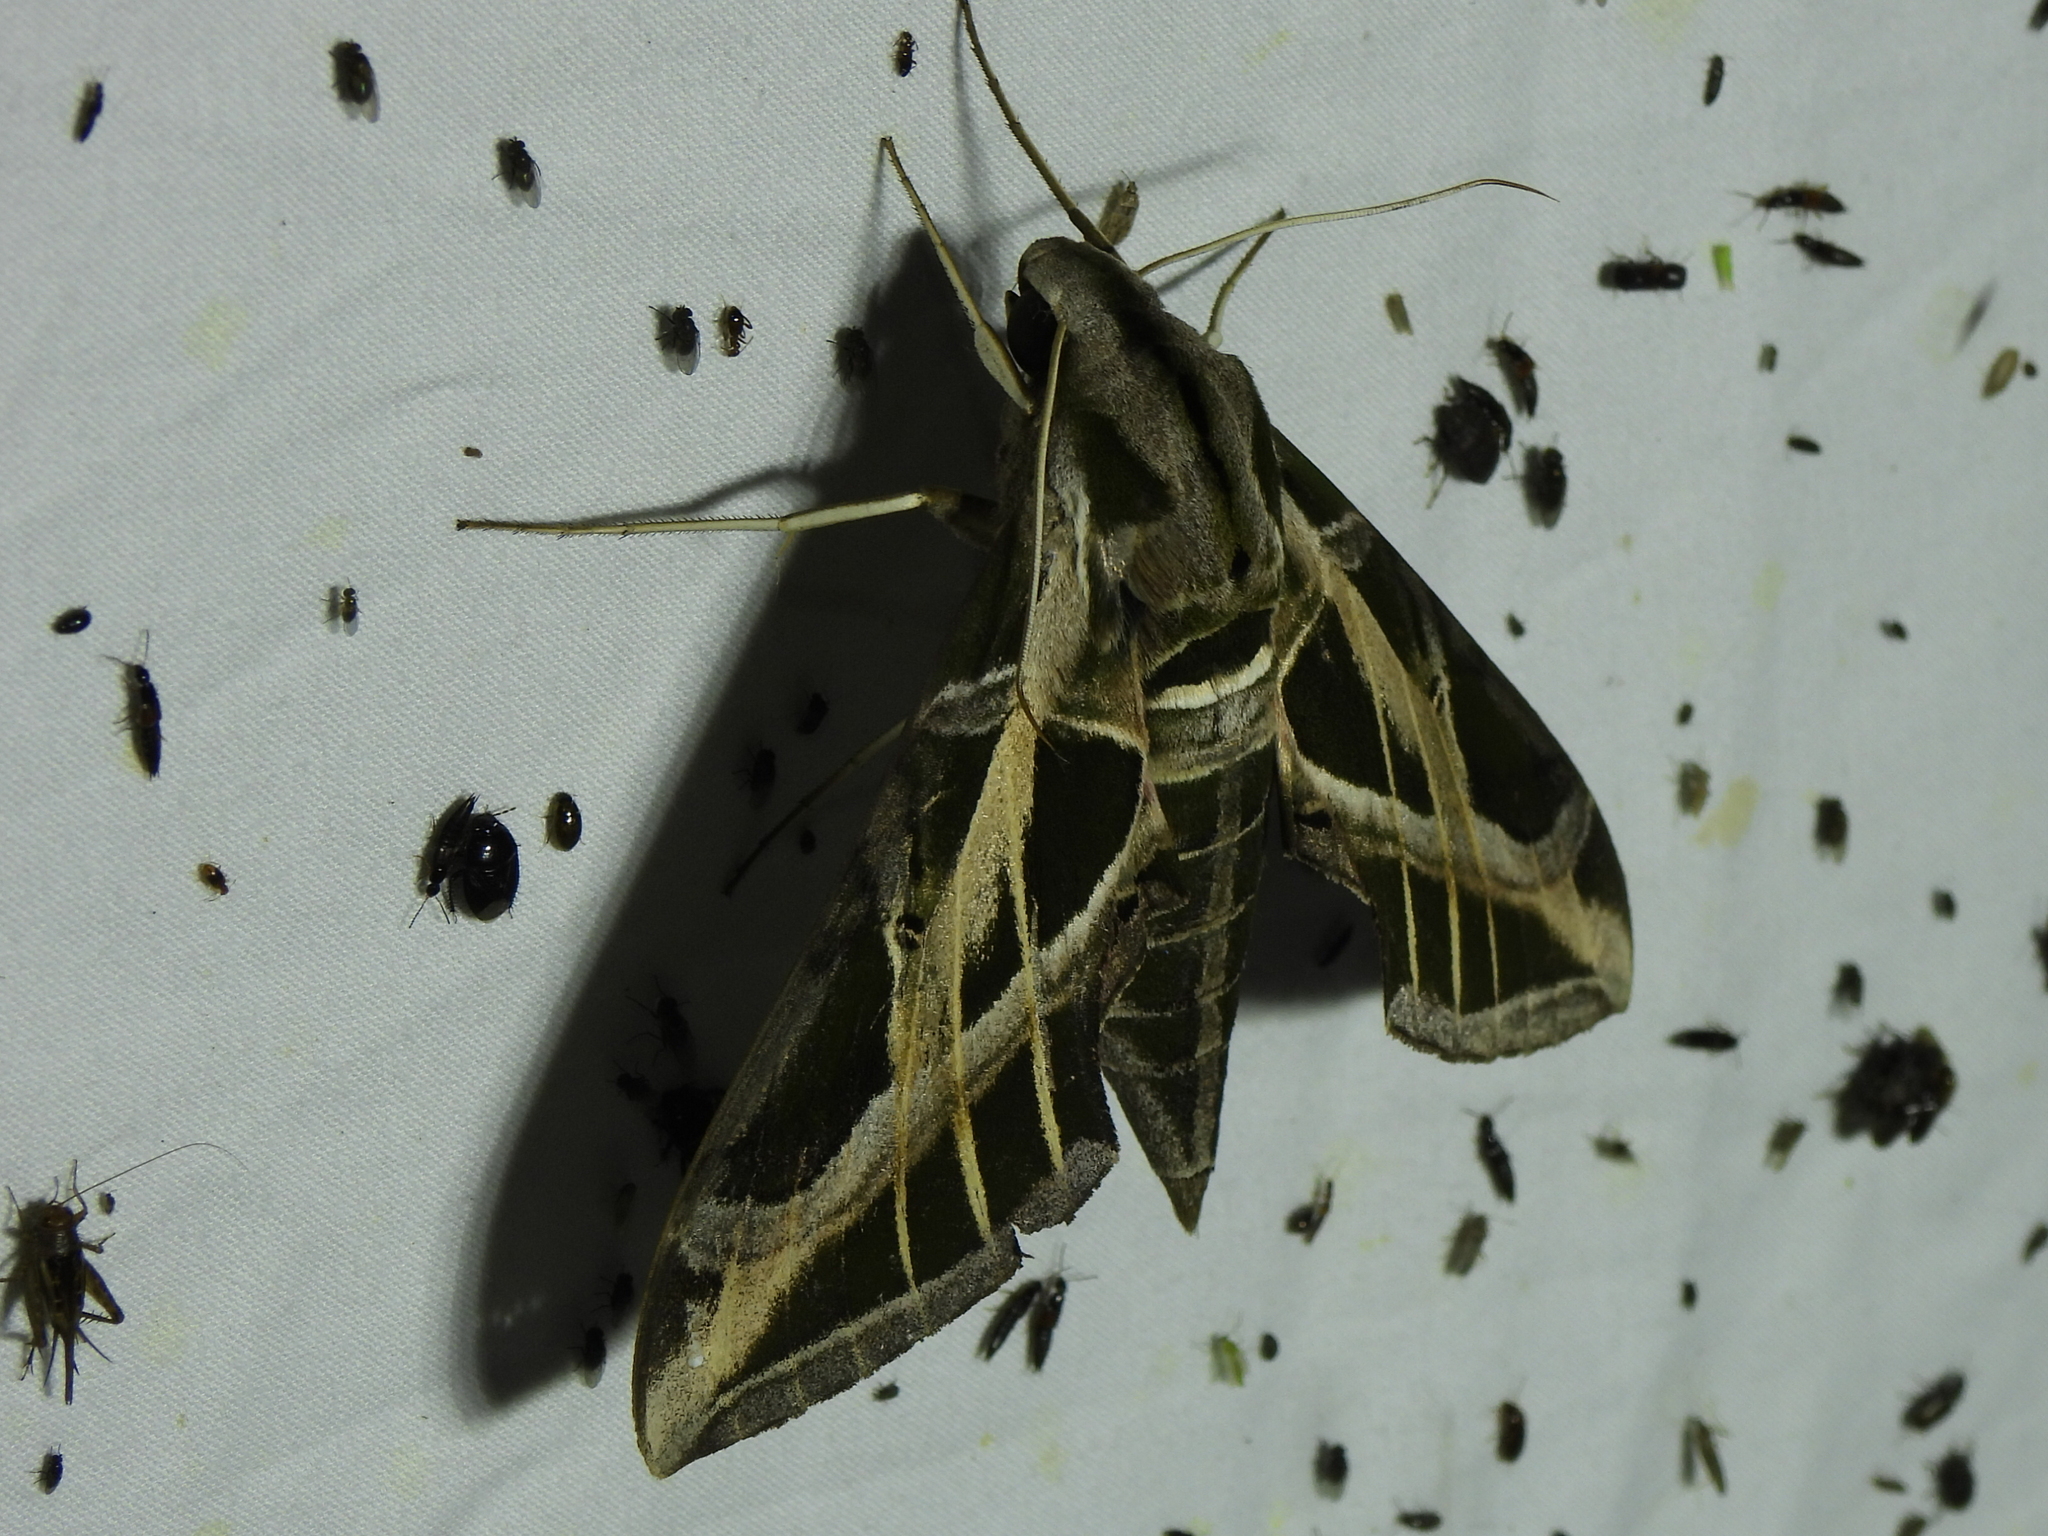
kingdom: Animalia
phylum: Arthropoda
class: Insecta
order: Lepidoptera
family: Sphingidae
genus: Eumorpha
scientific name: Eumorpha vitis
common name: Vine sphinx
